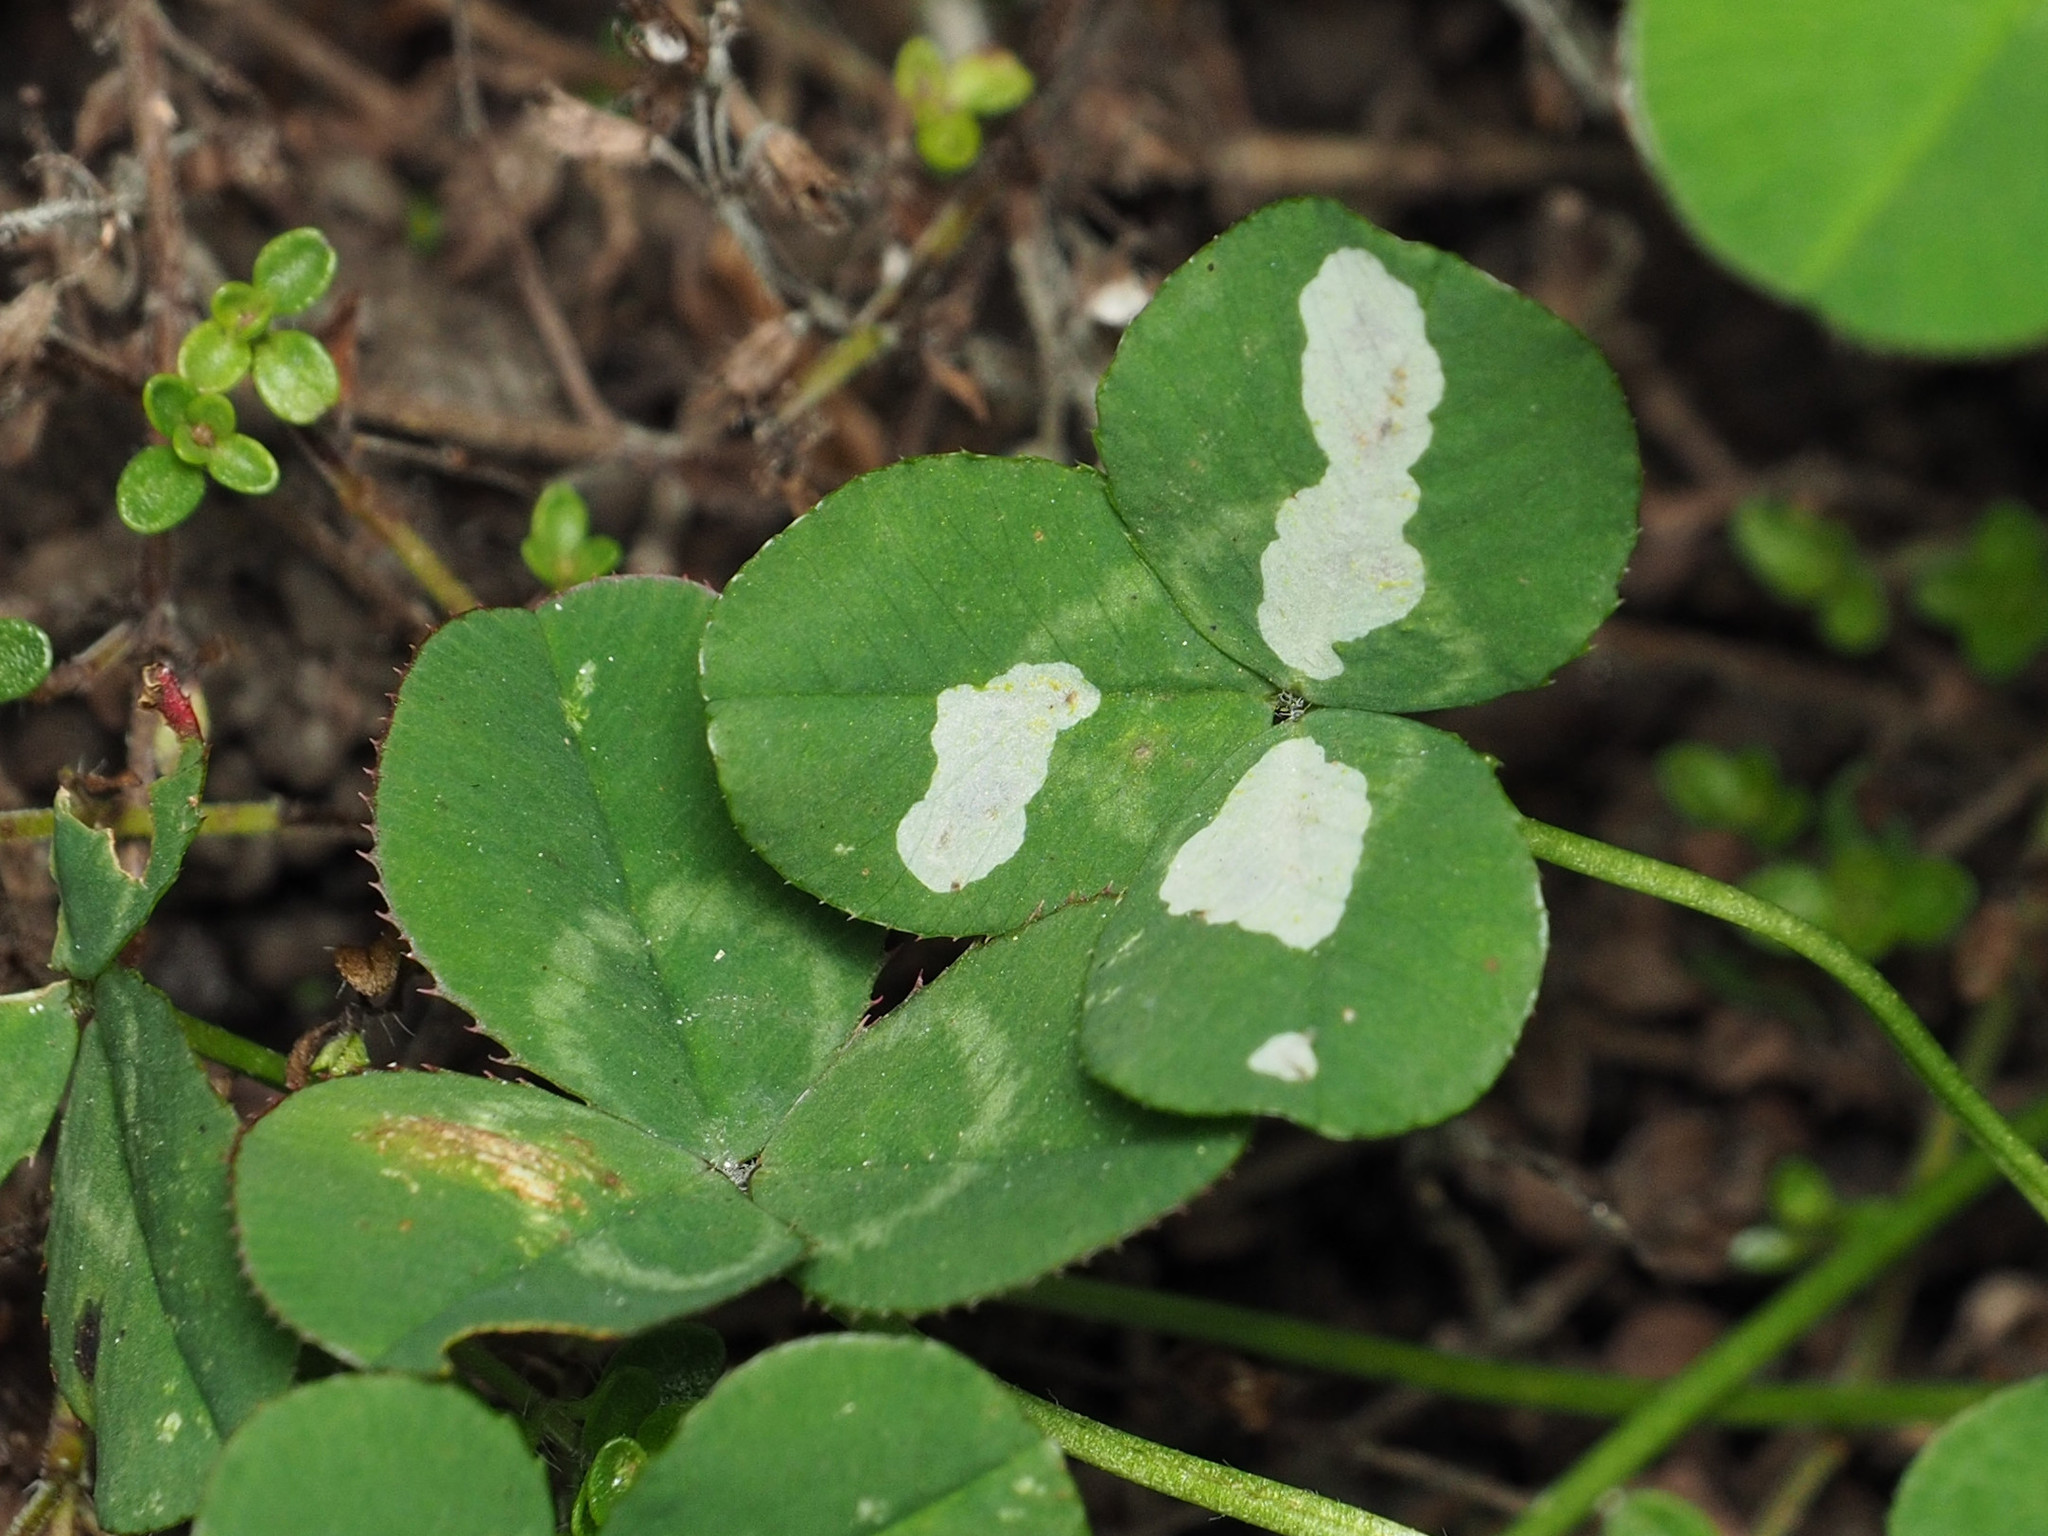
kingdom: Animalia
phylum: Arthropoda
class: Insecta
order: Lepidoptera
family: Gracillariidae
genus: Porphyrosela
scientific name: Porphyrosela minuta
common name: Leaf miner moth
